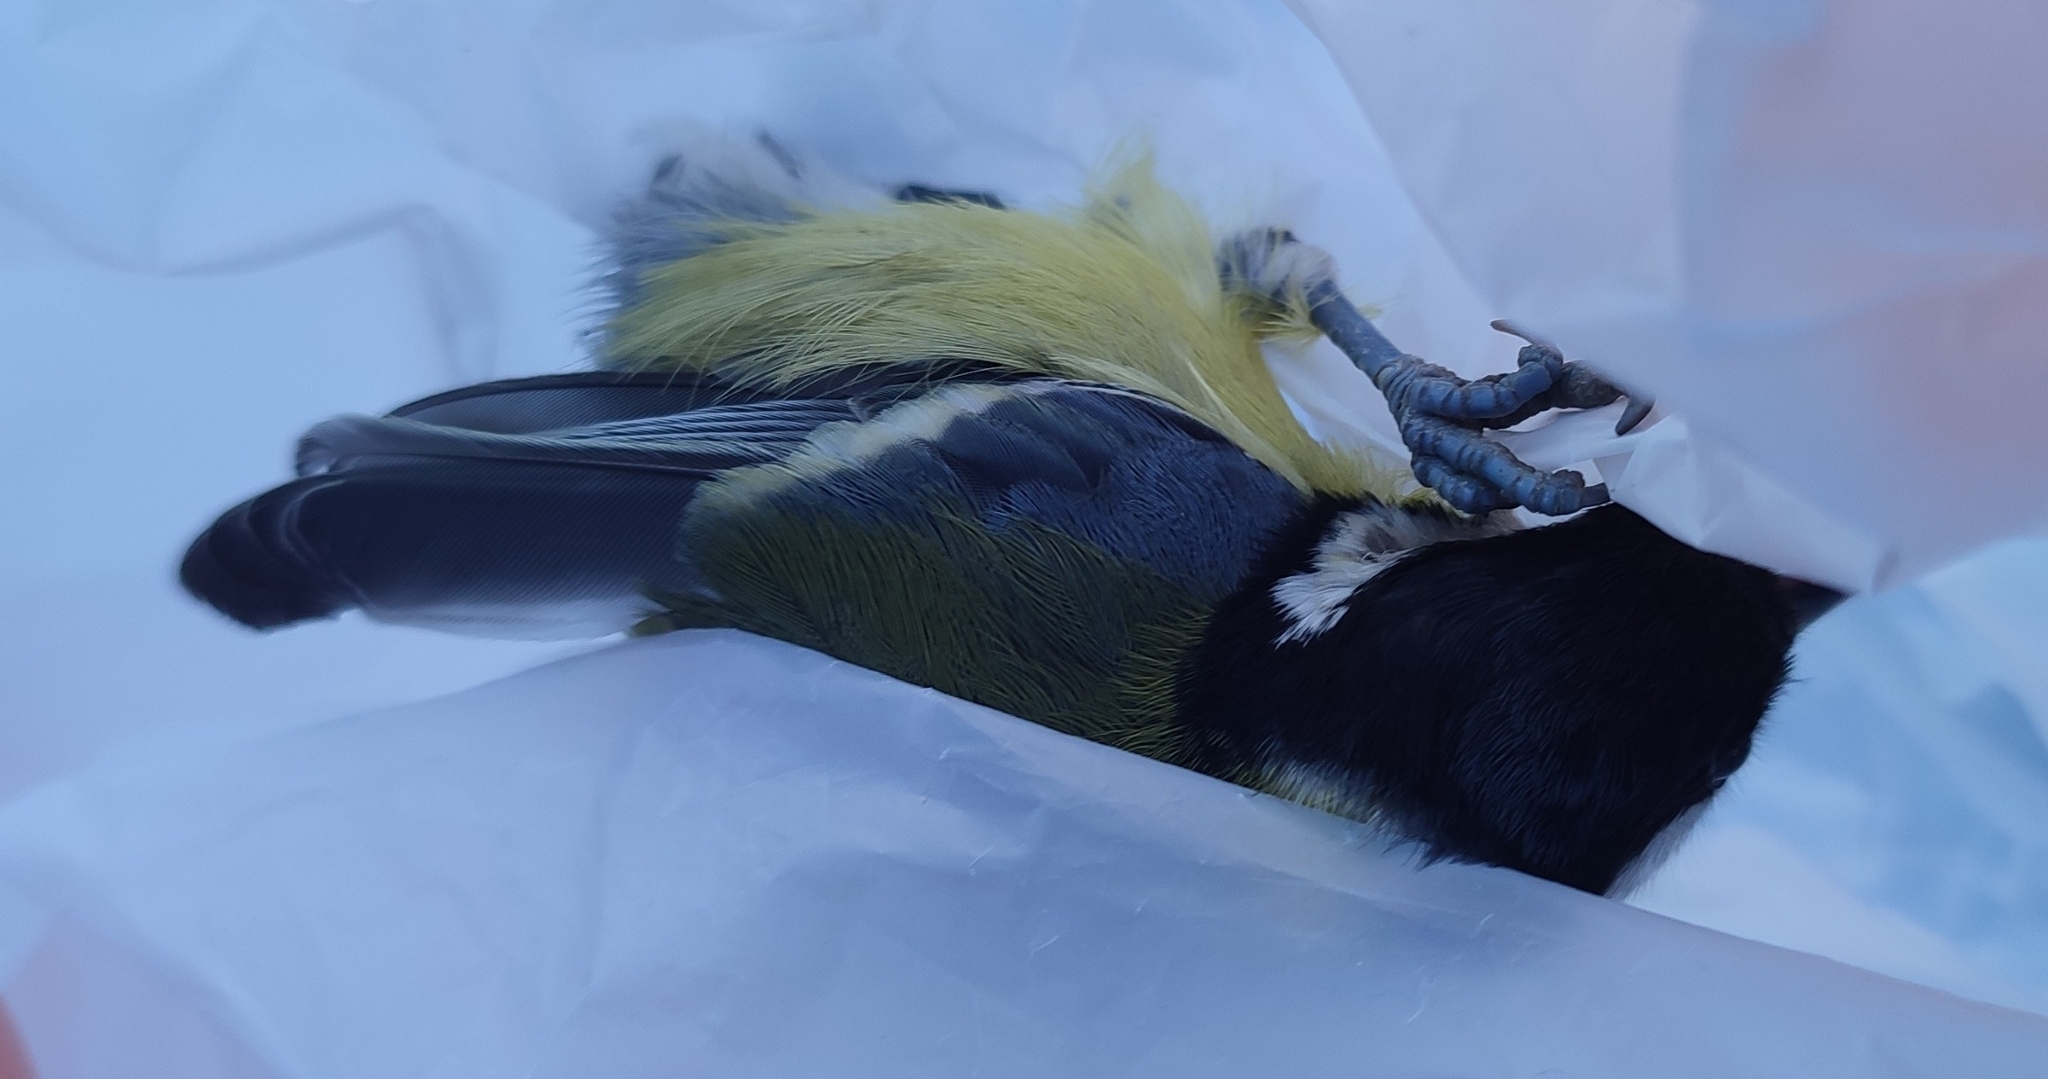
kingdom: Animalia
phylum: Chordata
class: Aves
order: Passeriformes
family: Paridae
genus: Parus
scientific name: Parus major
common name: Great tit
